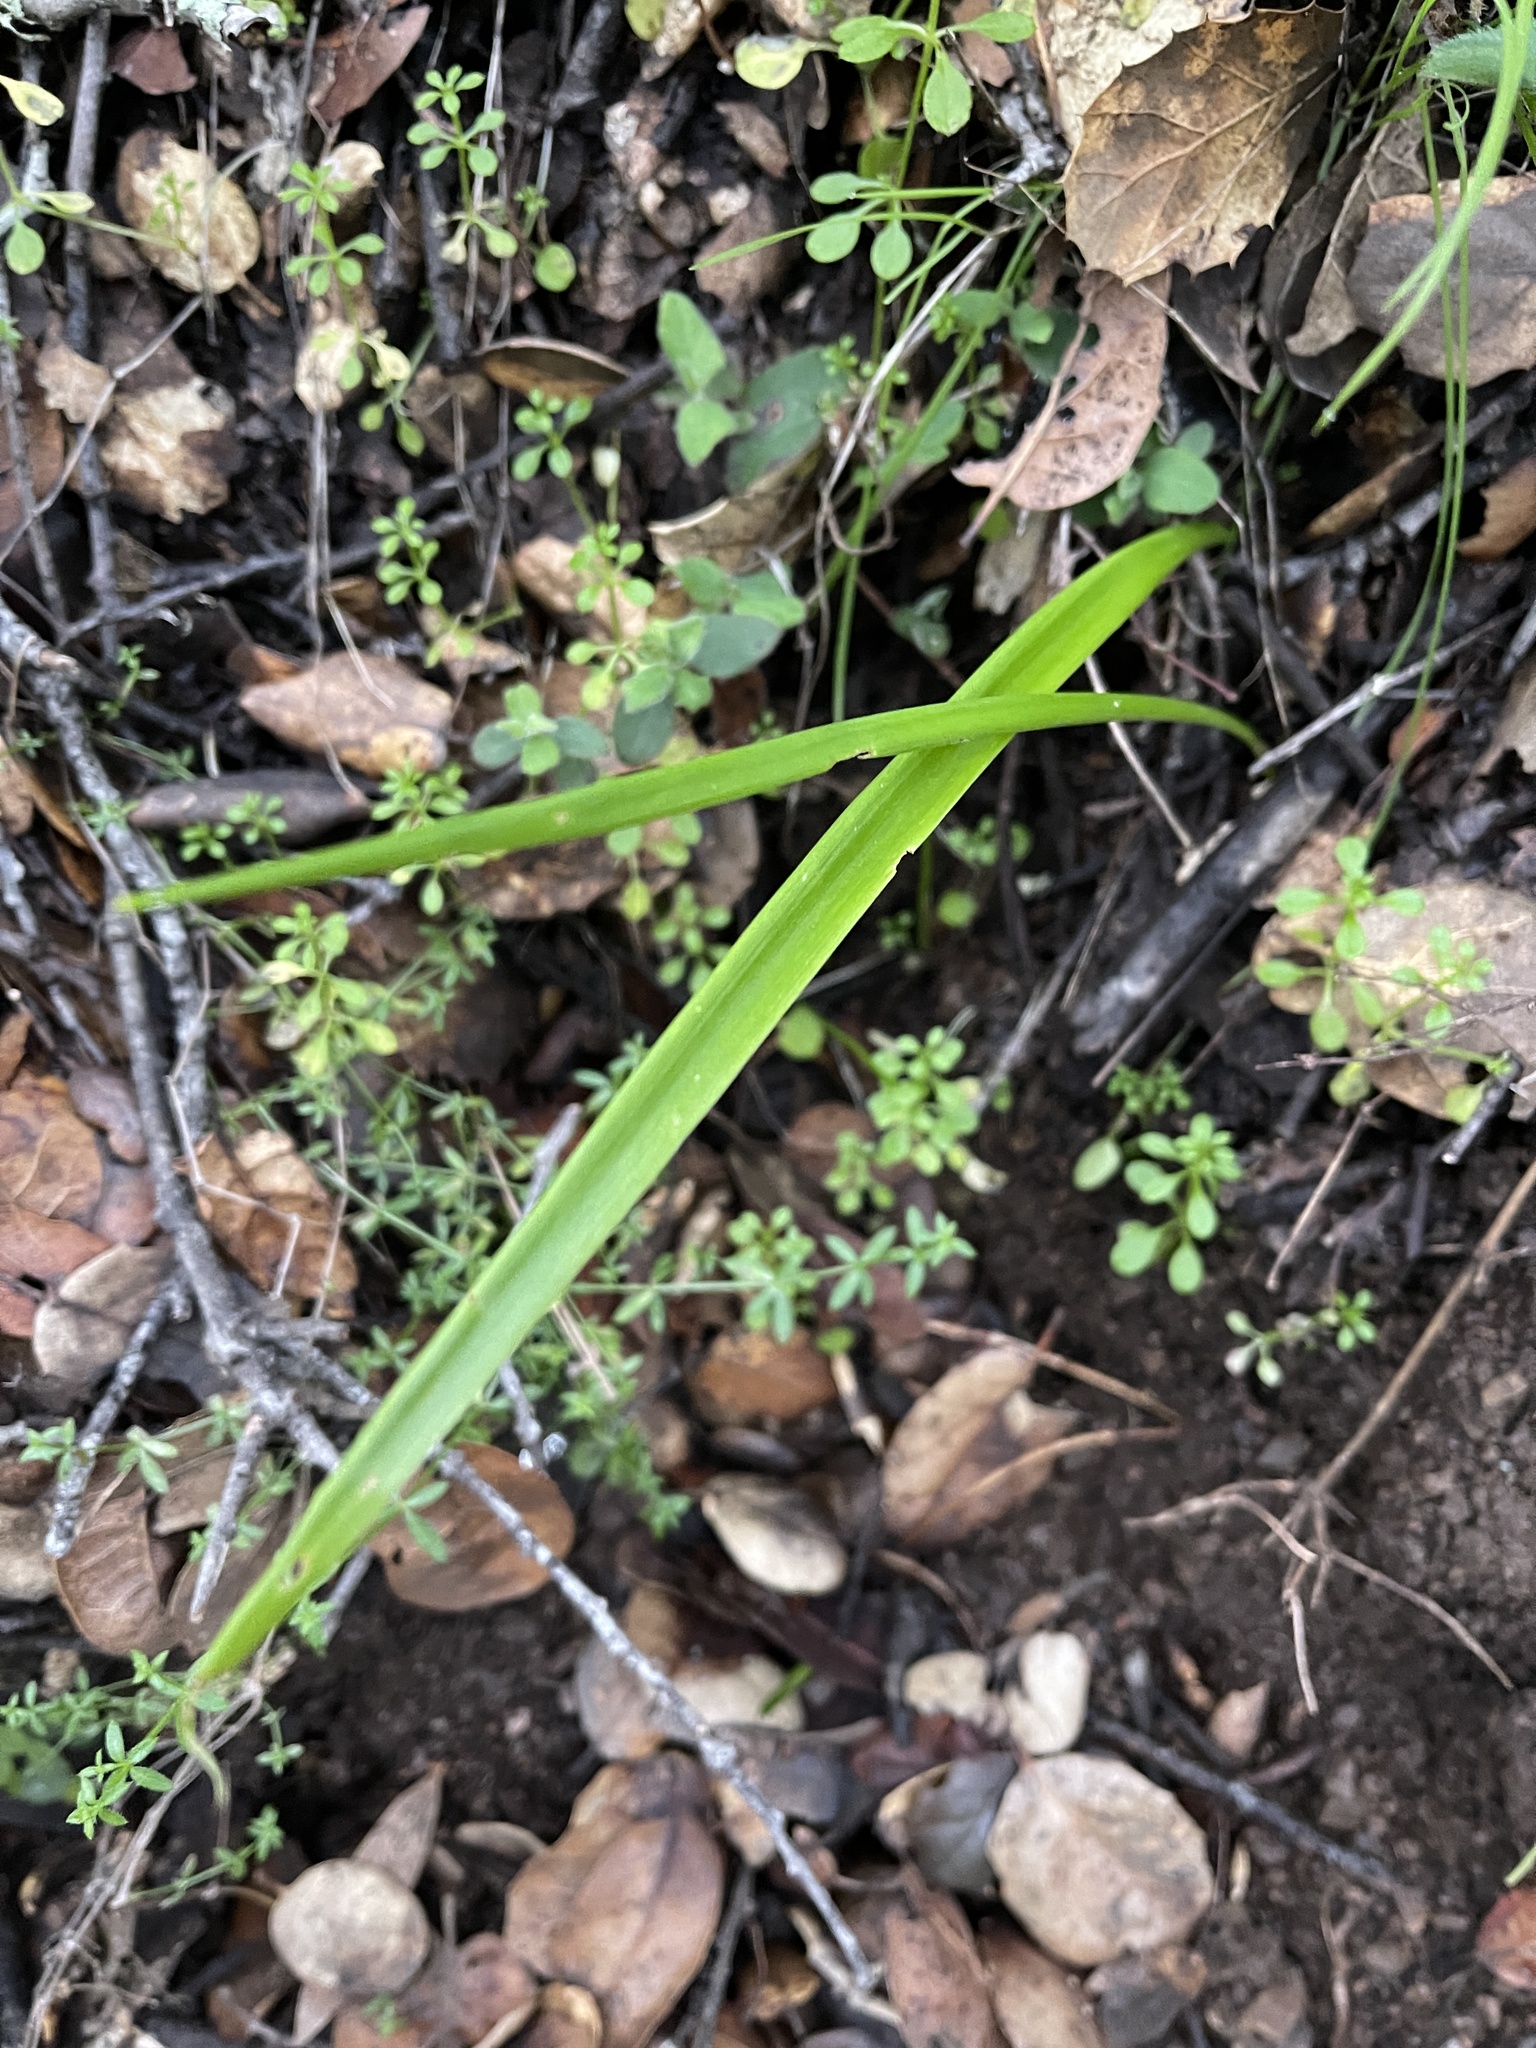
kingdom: Plantae
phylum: Tracheophyta
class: Liliopsida
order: Liliales
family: Liliaceae
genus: Calochortus
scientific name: Calochortus albus
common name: Fairy-lantern
